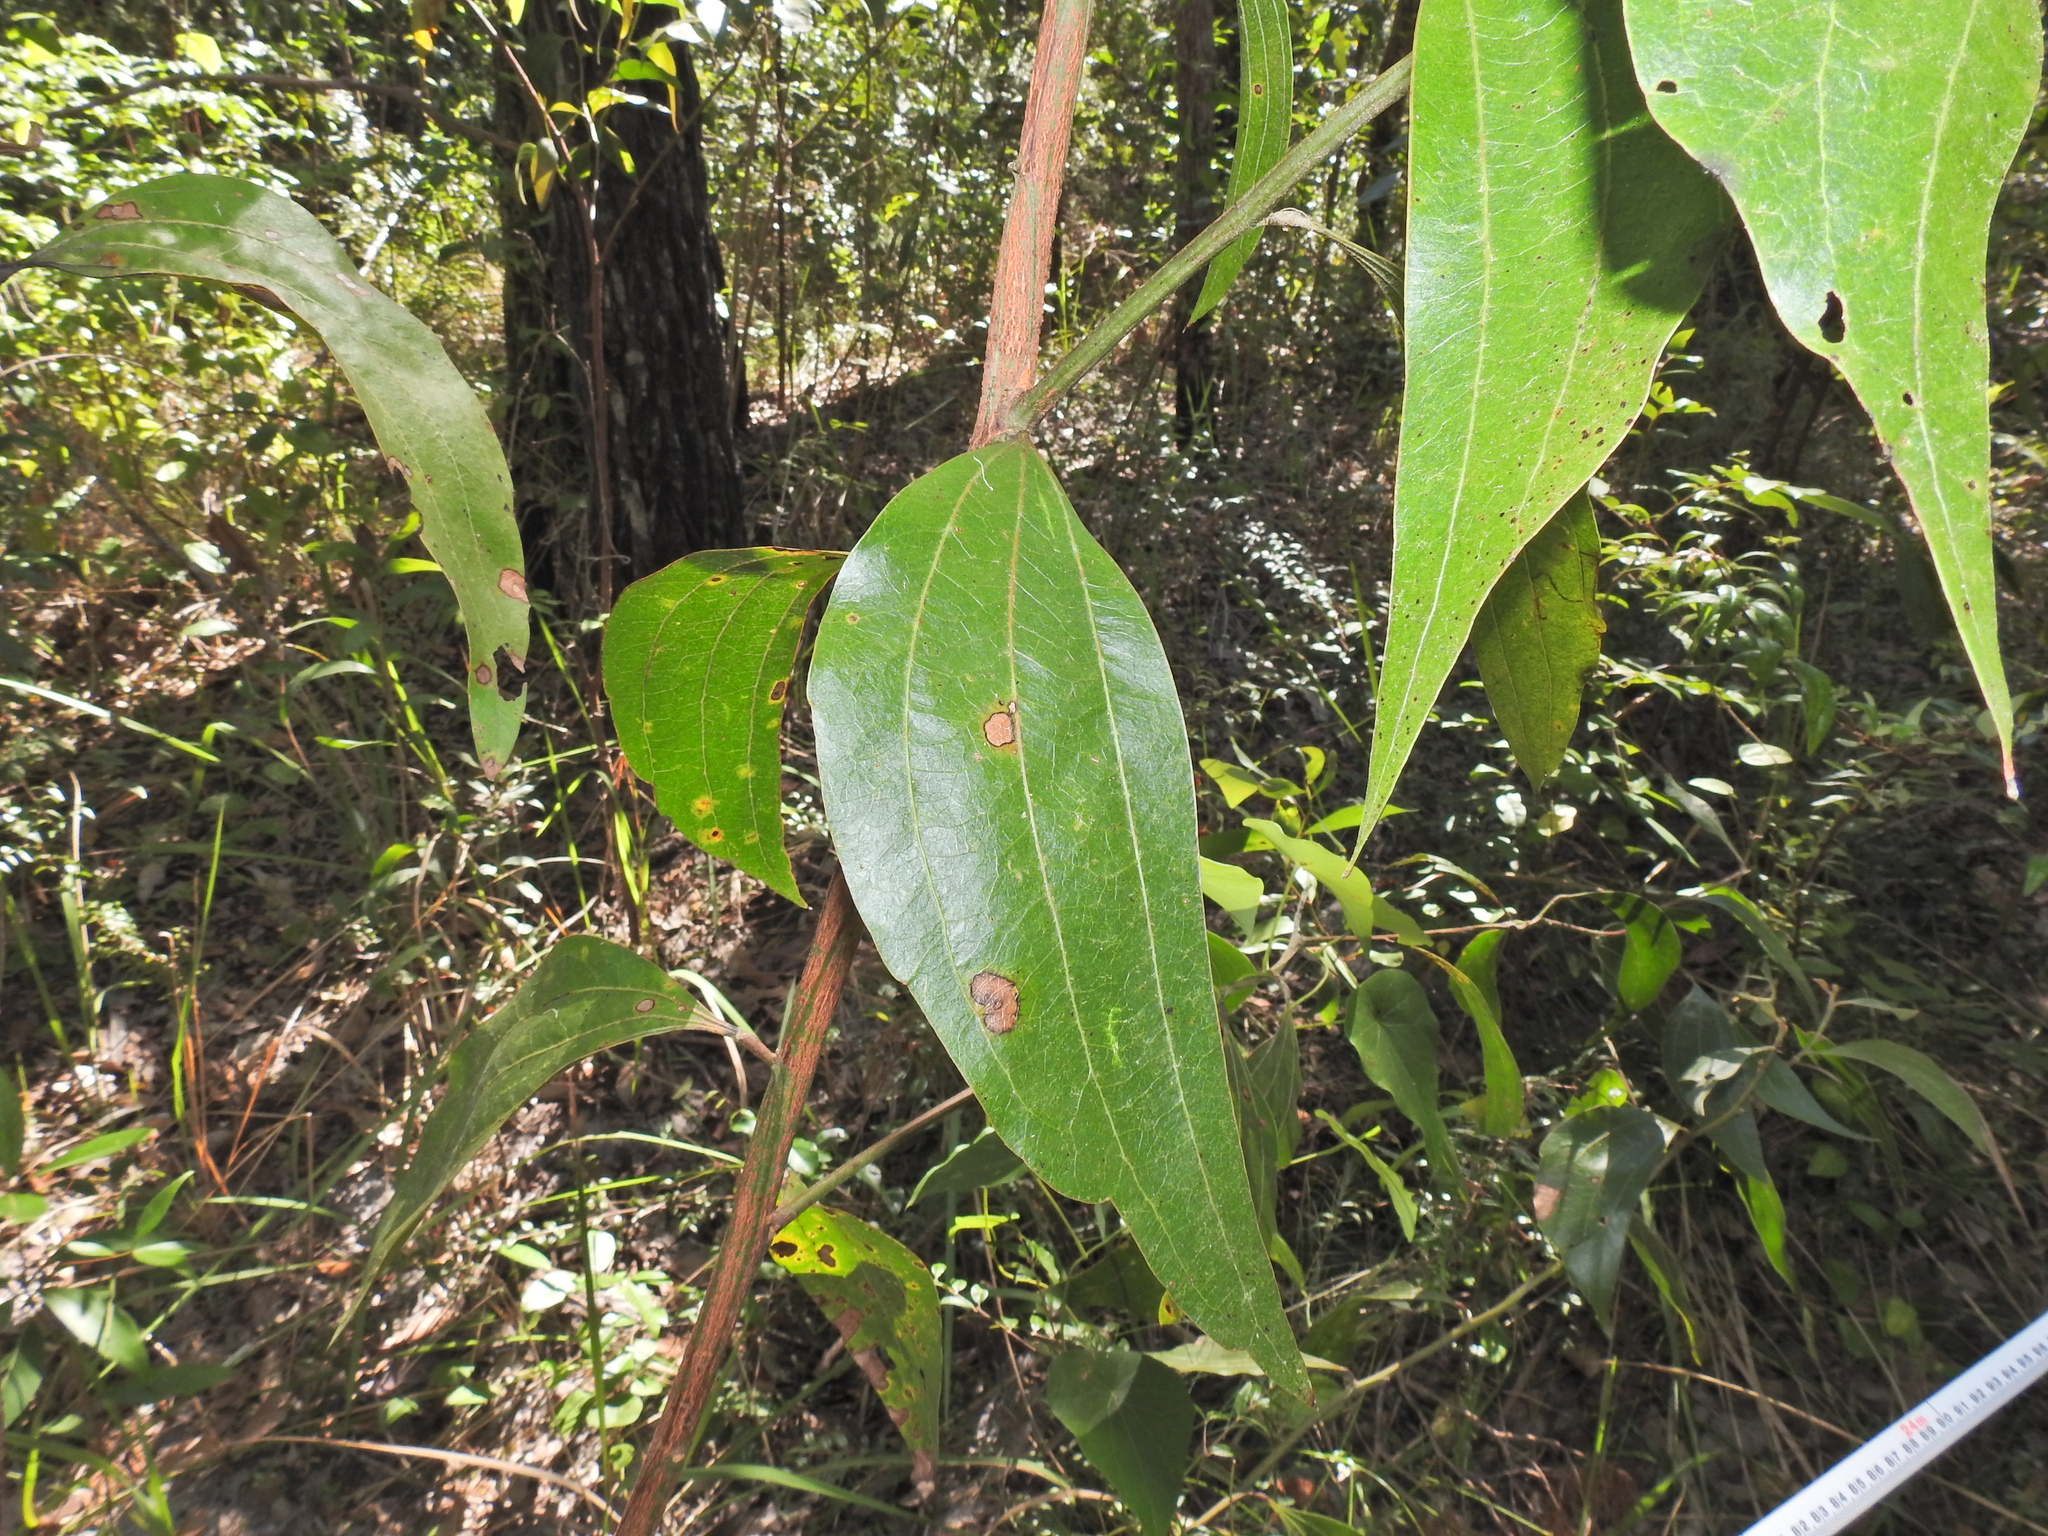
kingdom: Plantae
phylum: Tracheophyta
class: Magnoliopsida
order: Fabales
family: Fabaceae
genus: Acacia
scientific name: Acacia flavescens
